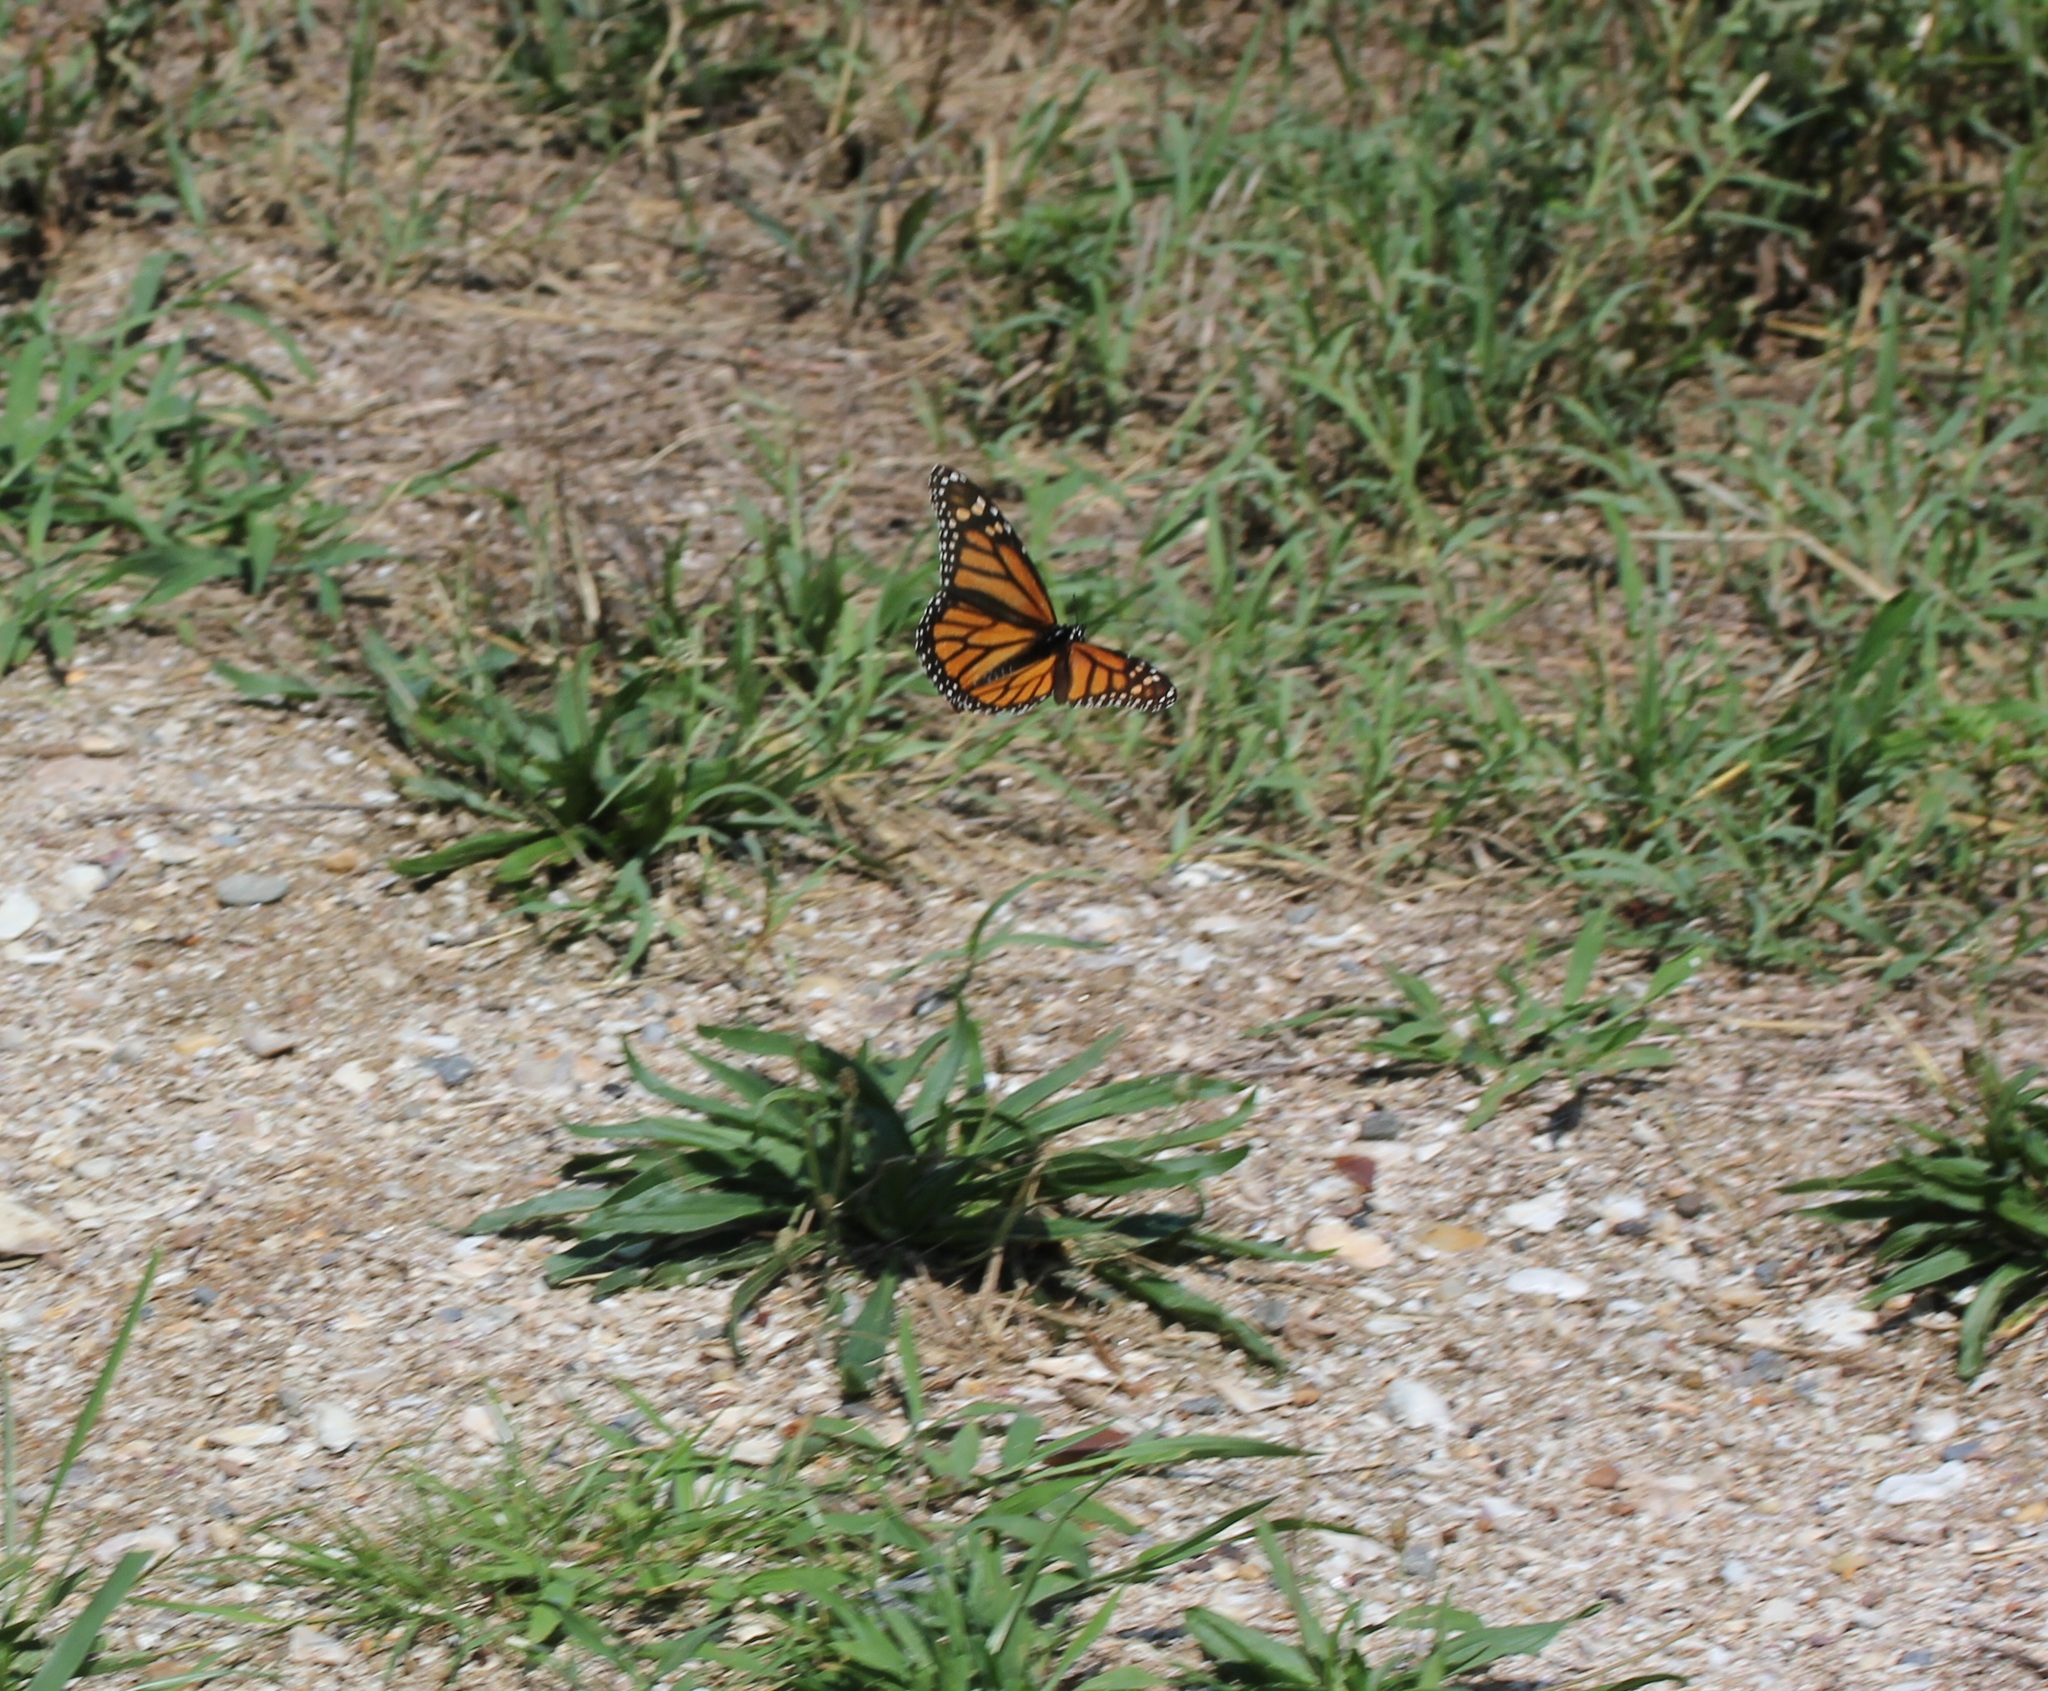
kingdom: Animalia
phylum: Arthropoda
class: Insecta
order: Lepidoptera
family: Nymphalidae
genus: Danaus
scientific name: Danaus plexippus
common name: Monarch
